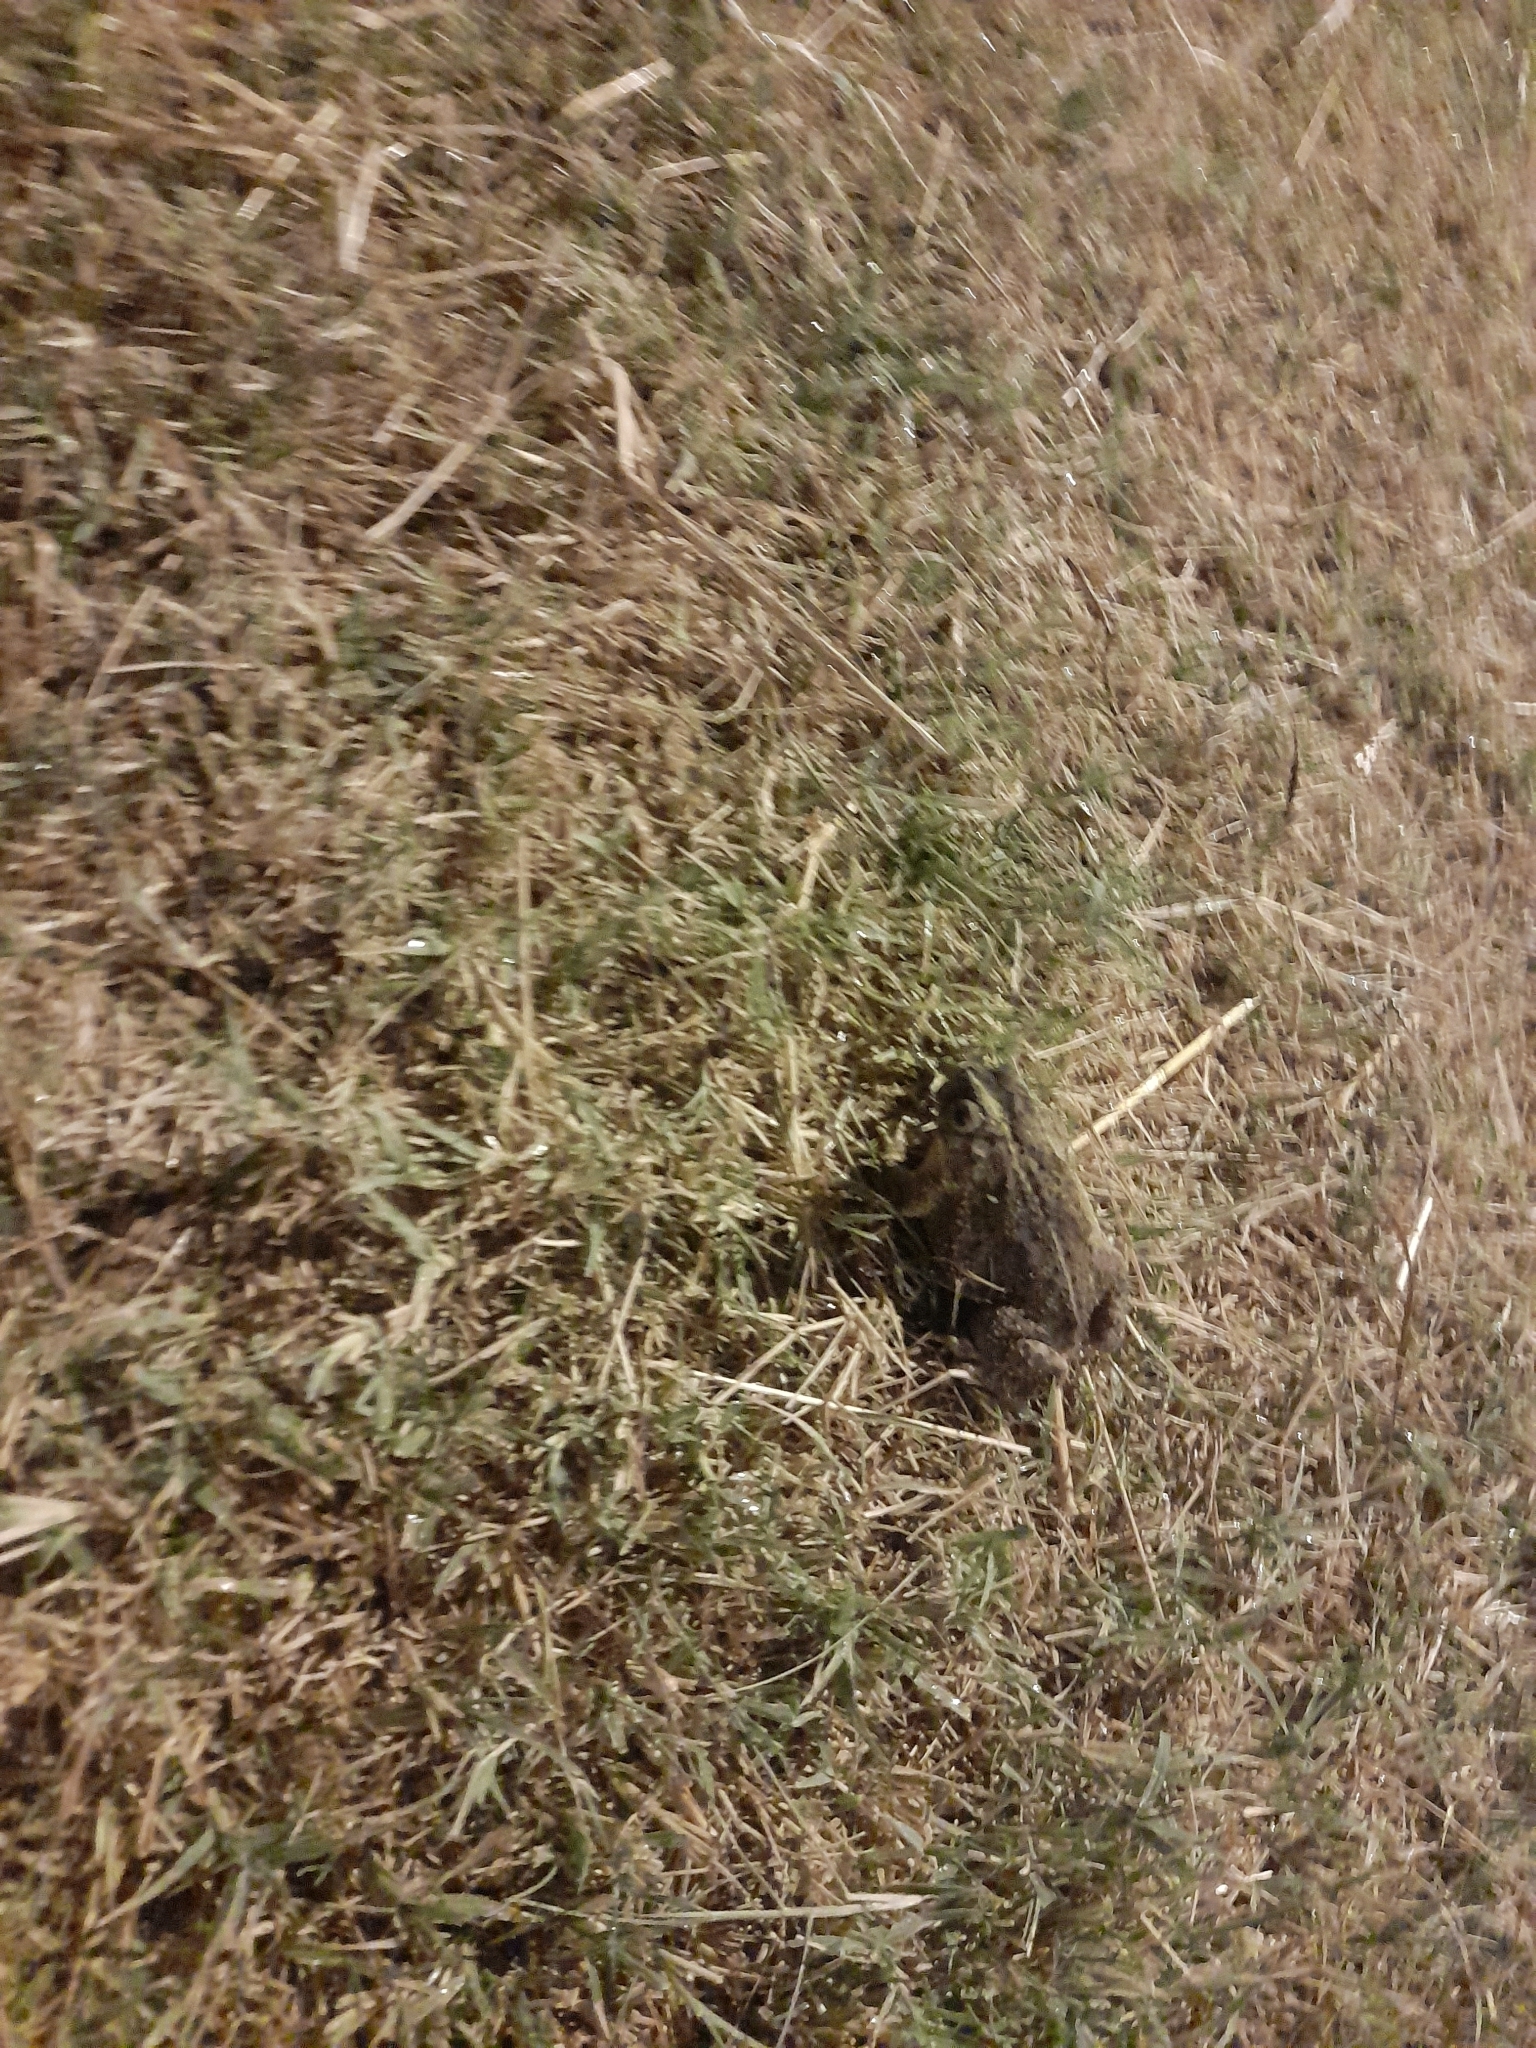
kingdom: Animalia
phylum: Chordata
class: Amphibia
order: Anura
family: Bufonidae
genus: Rhinella
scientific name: Rhinella dorbignyi
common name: D´orbigny’s toad
